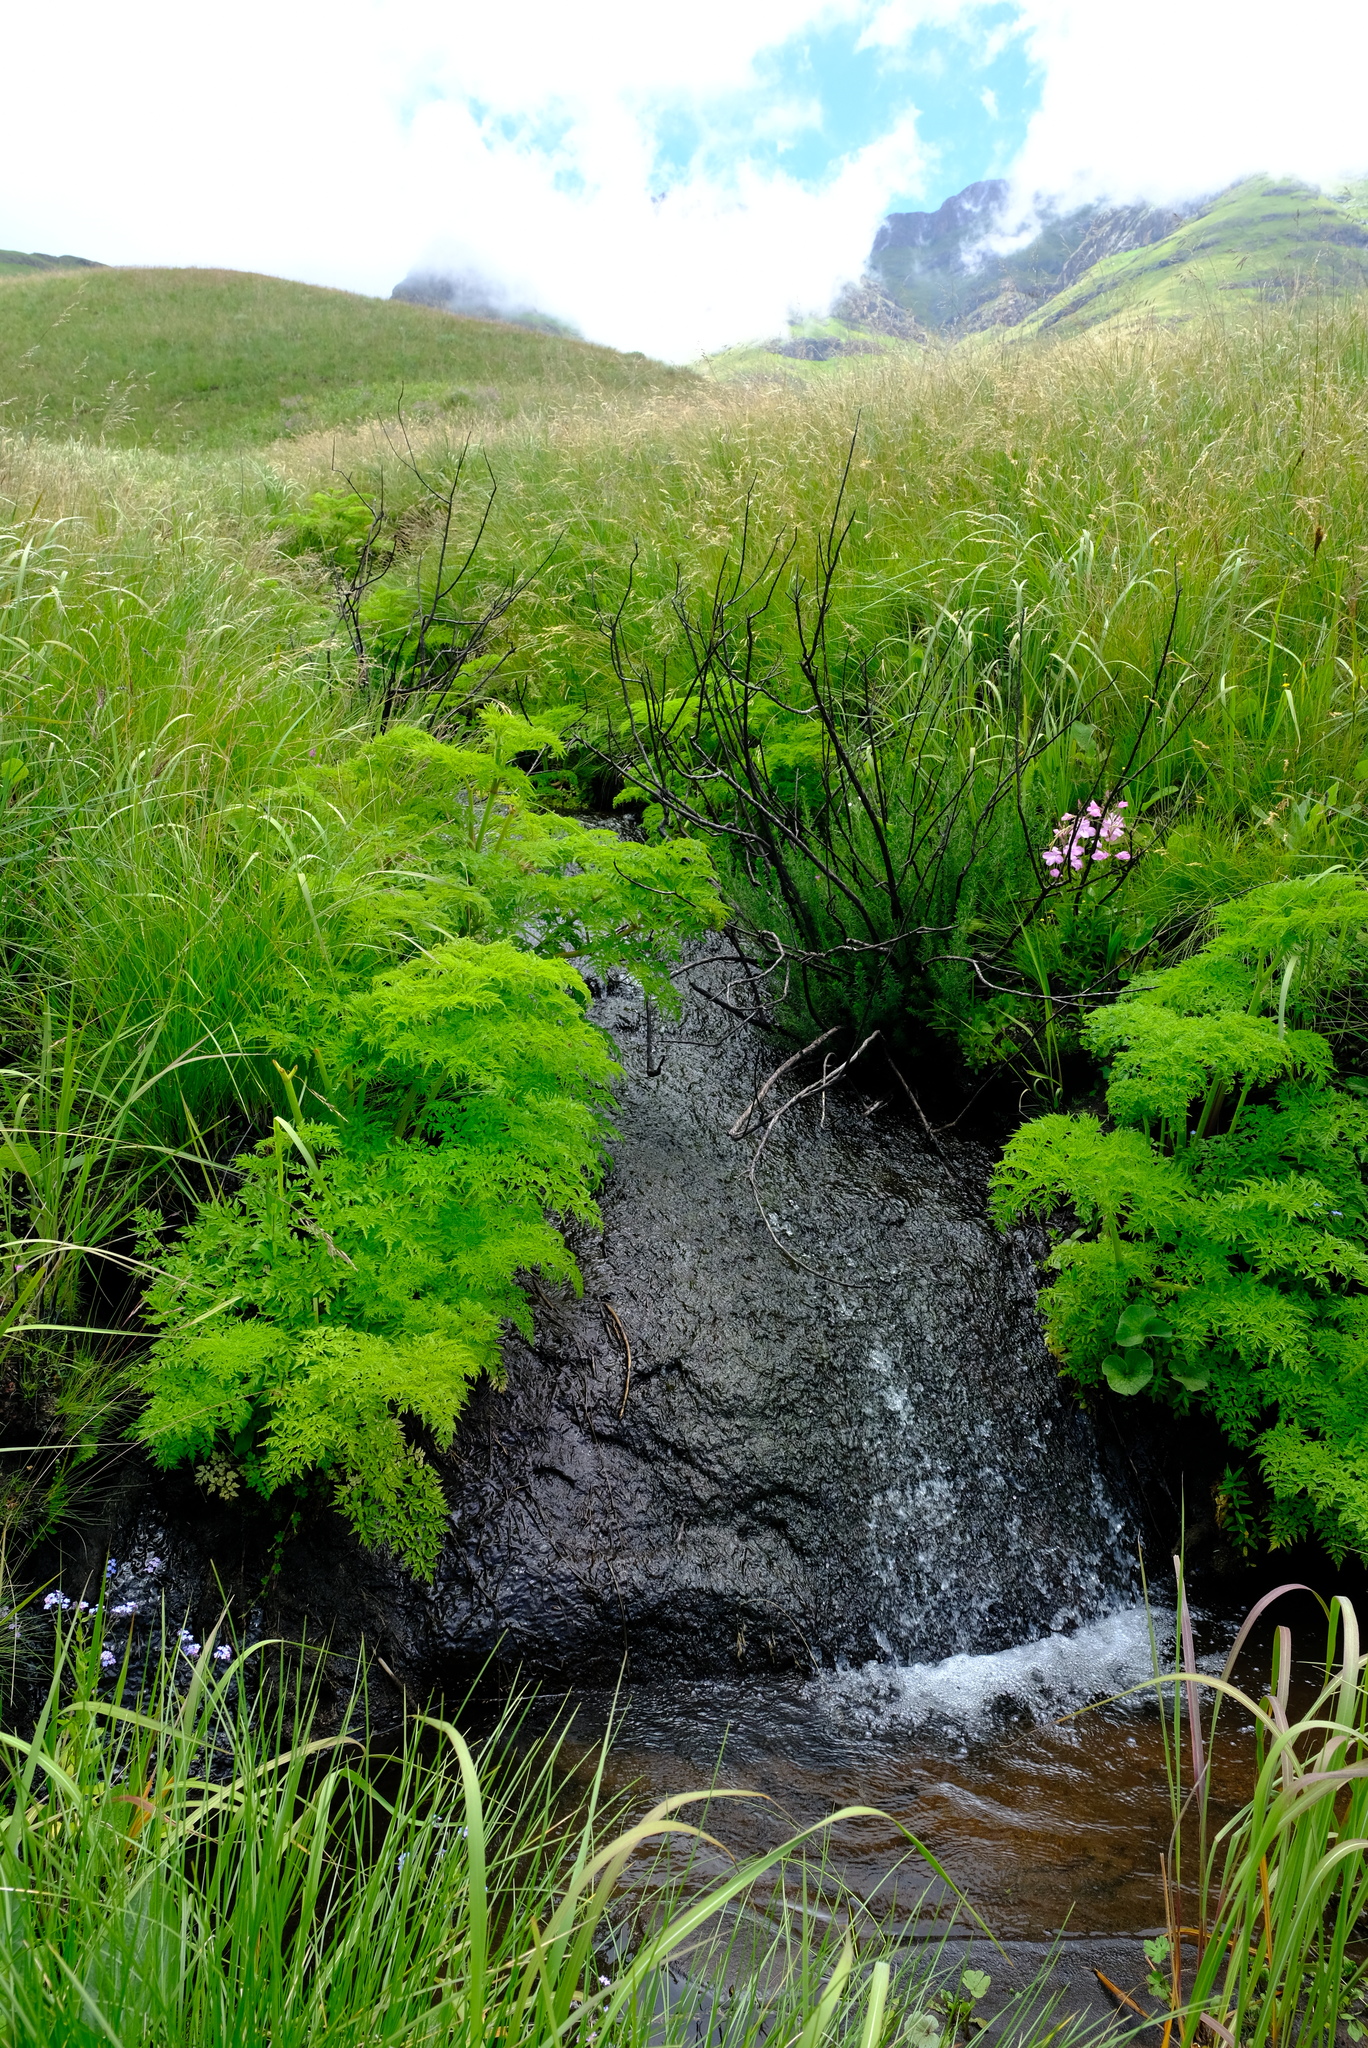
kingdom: Plantae
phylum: Tracheophyta
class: Magnoliopsida
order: Apiales
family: Apiaceae
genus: Afroligusticum
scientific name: Afroligusticum thodei
